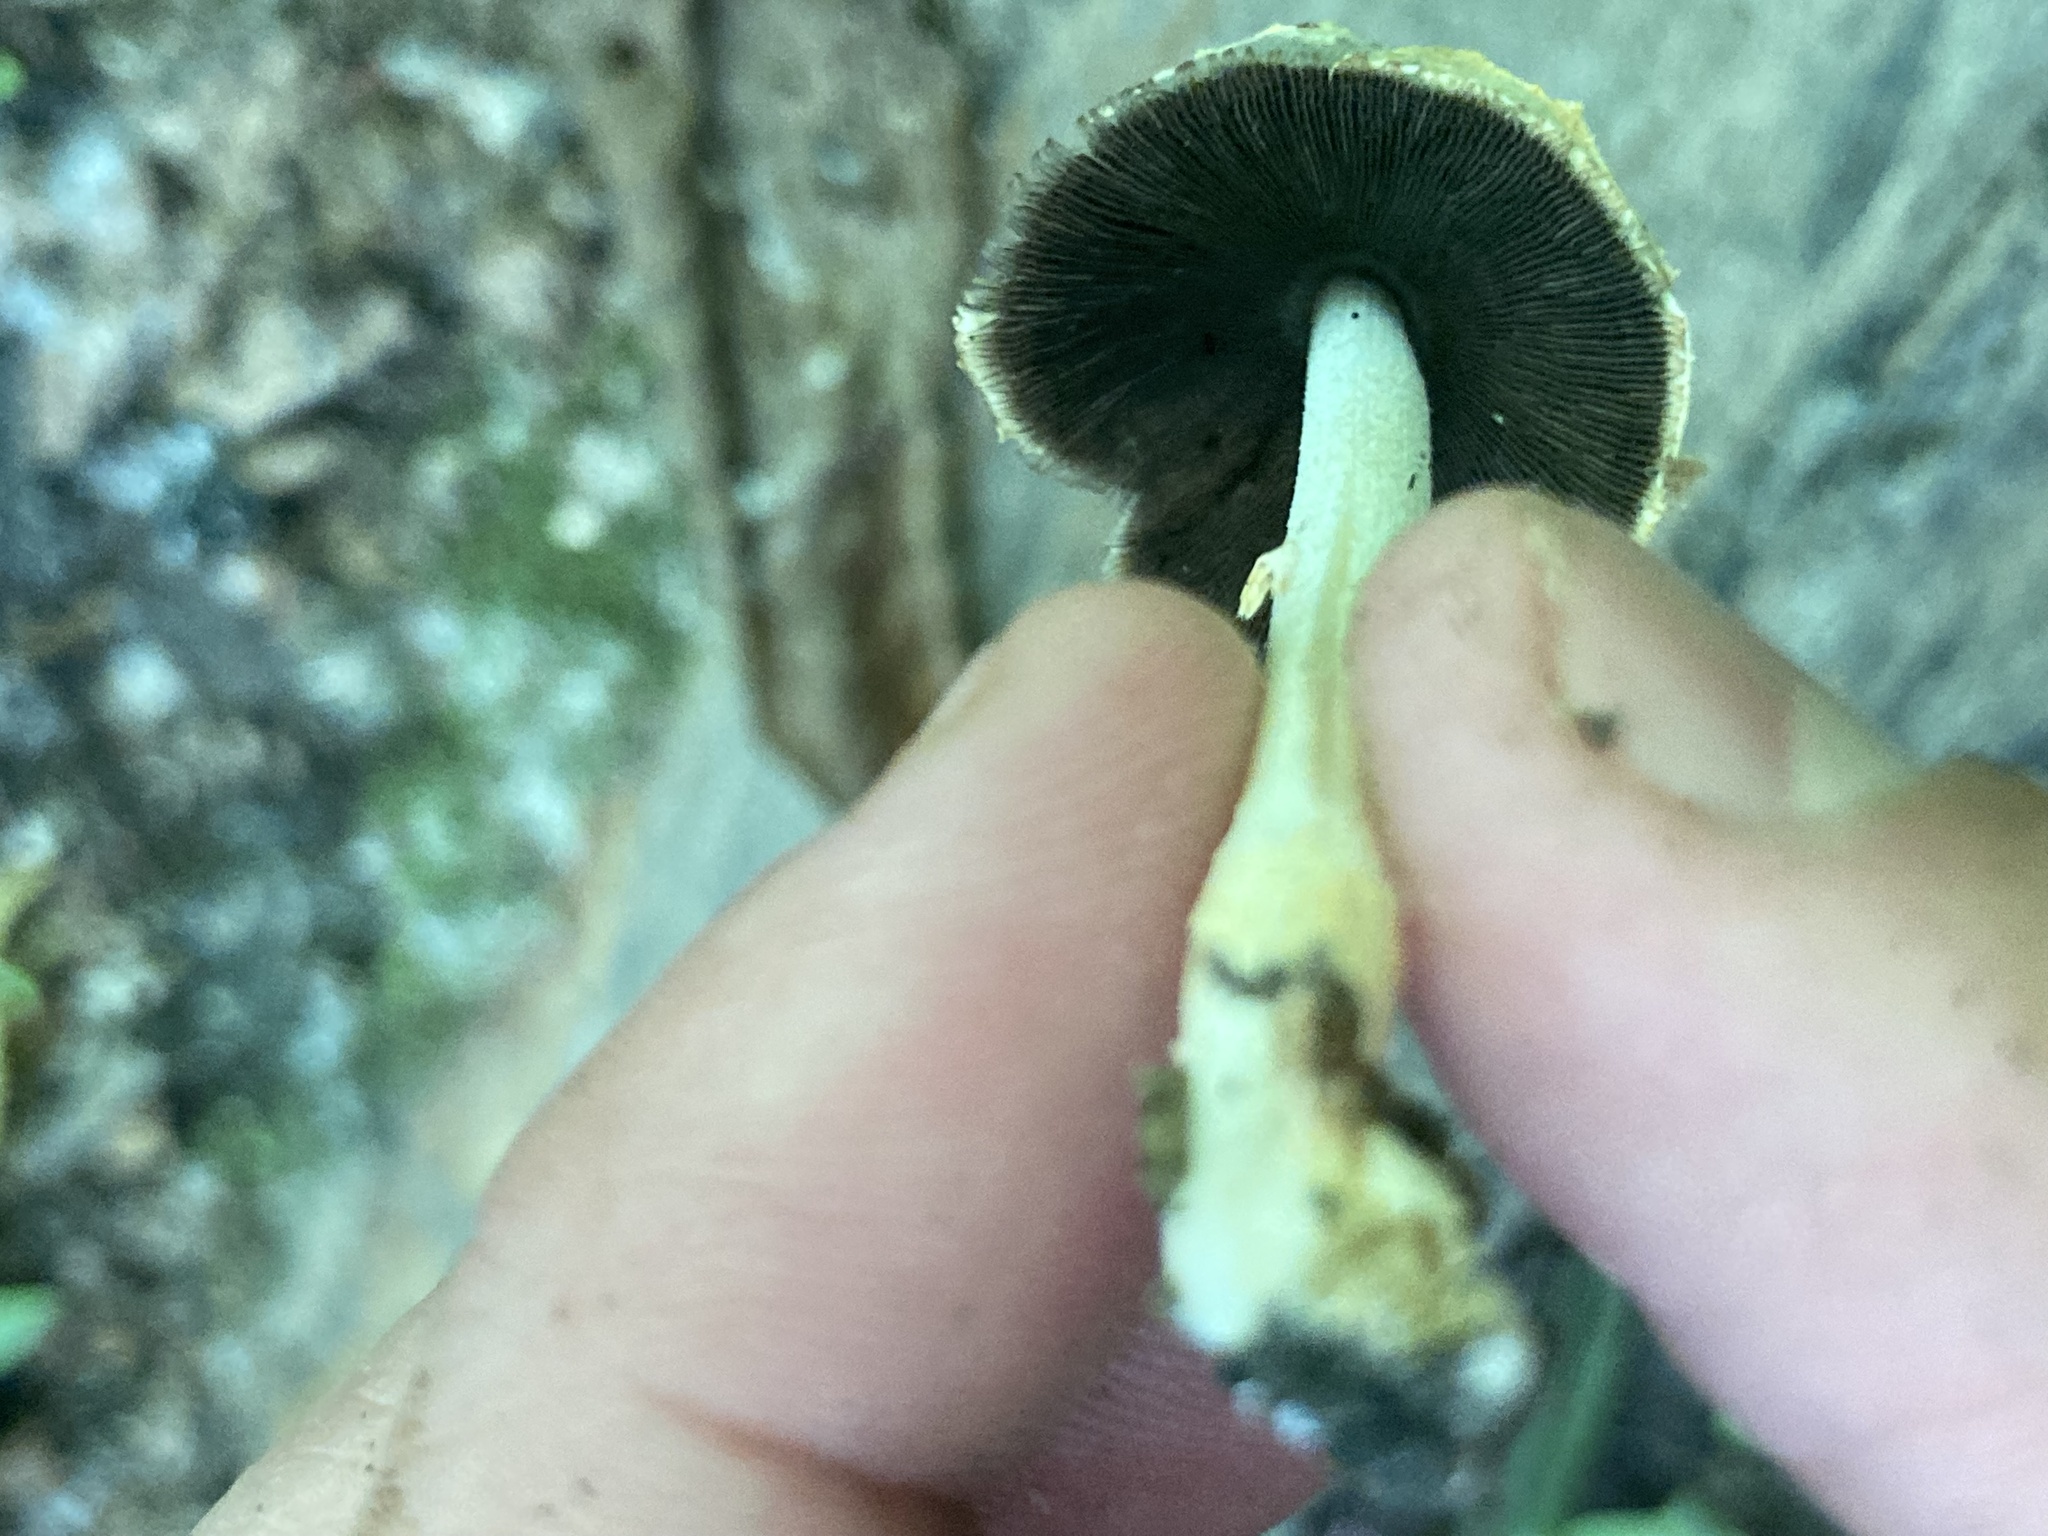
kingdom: Fungi
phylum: Basidiomycota
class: Agaricomycetes
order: Agaricales
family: Psathyrellaceae
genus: Coprinopsis
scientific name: Coprinopsis variegata
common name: Scaly ink cap
